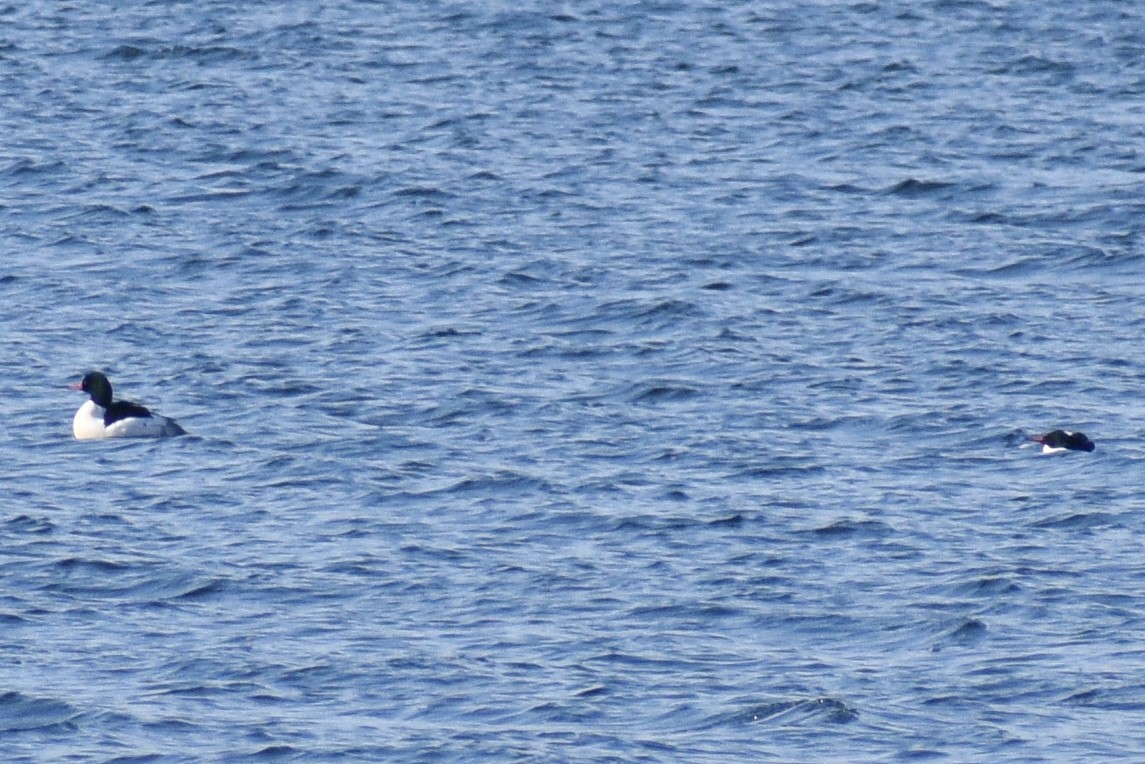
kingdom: Animalia
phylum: Chordata
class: Aves
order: Anseriformes
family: Anatidae
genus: Mergus
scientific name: Mergus merganser
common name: Common merganser
